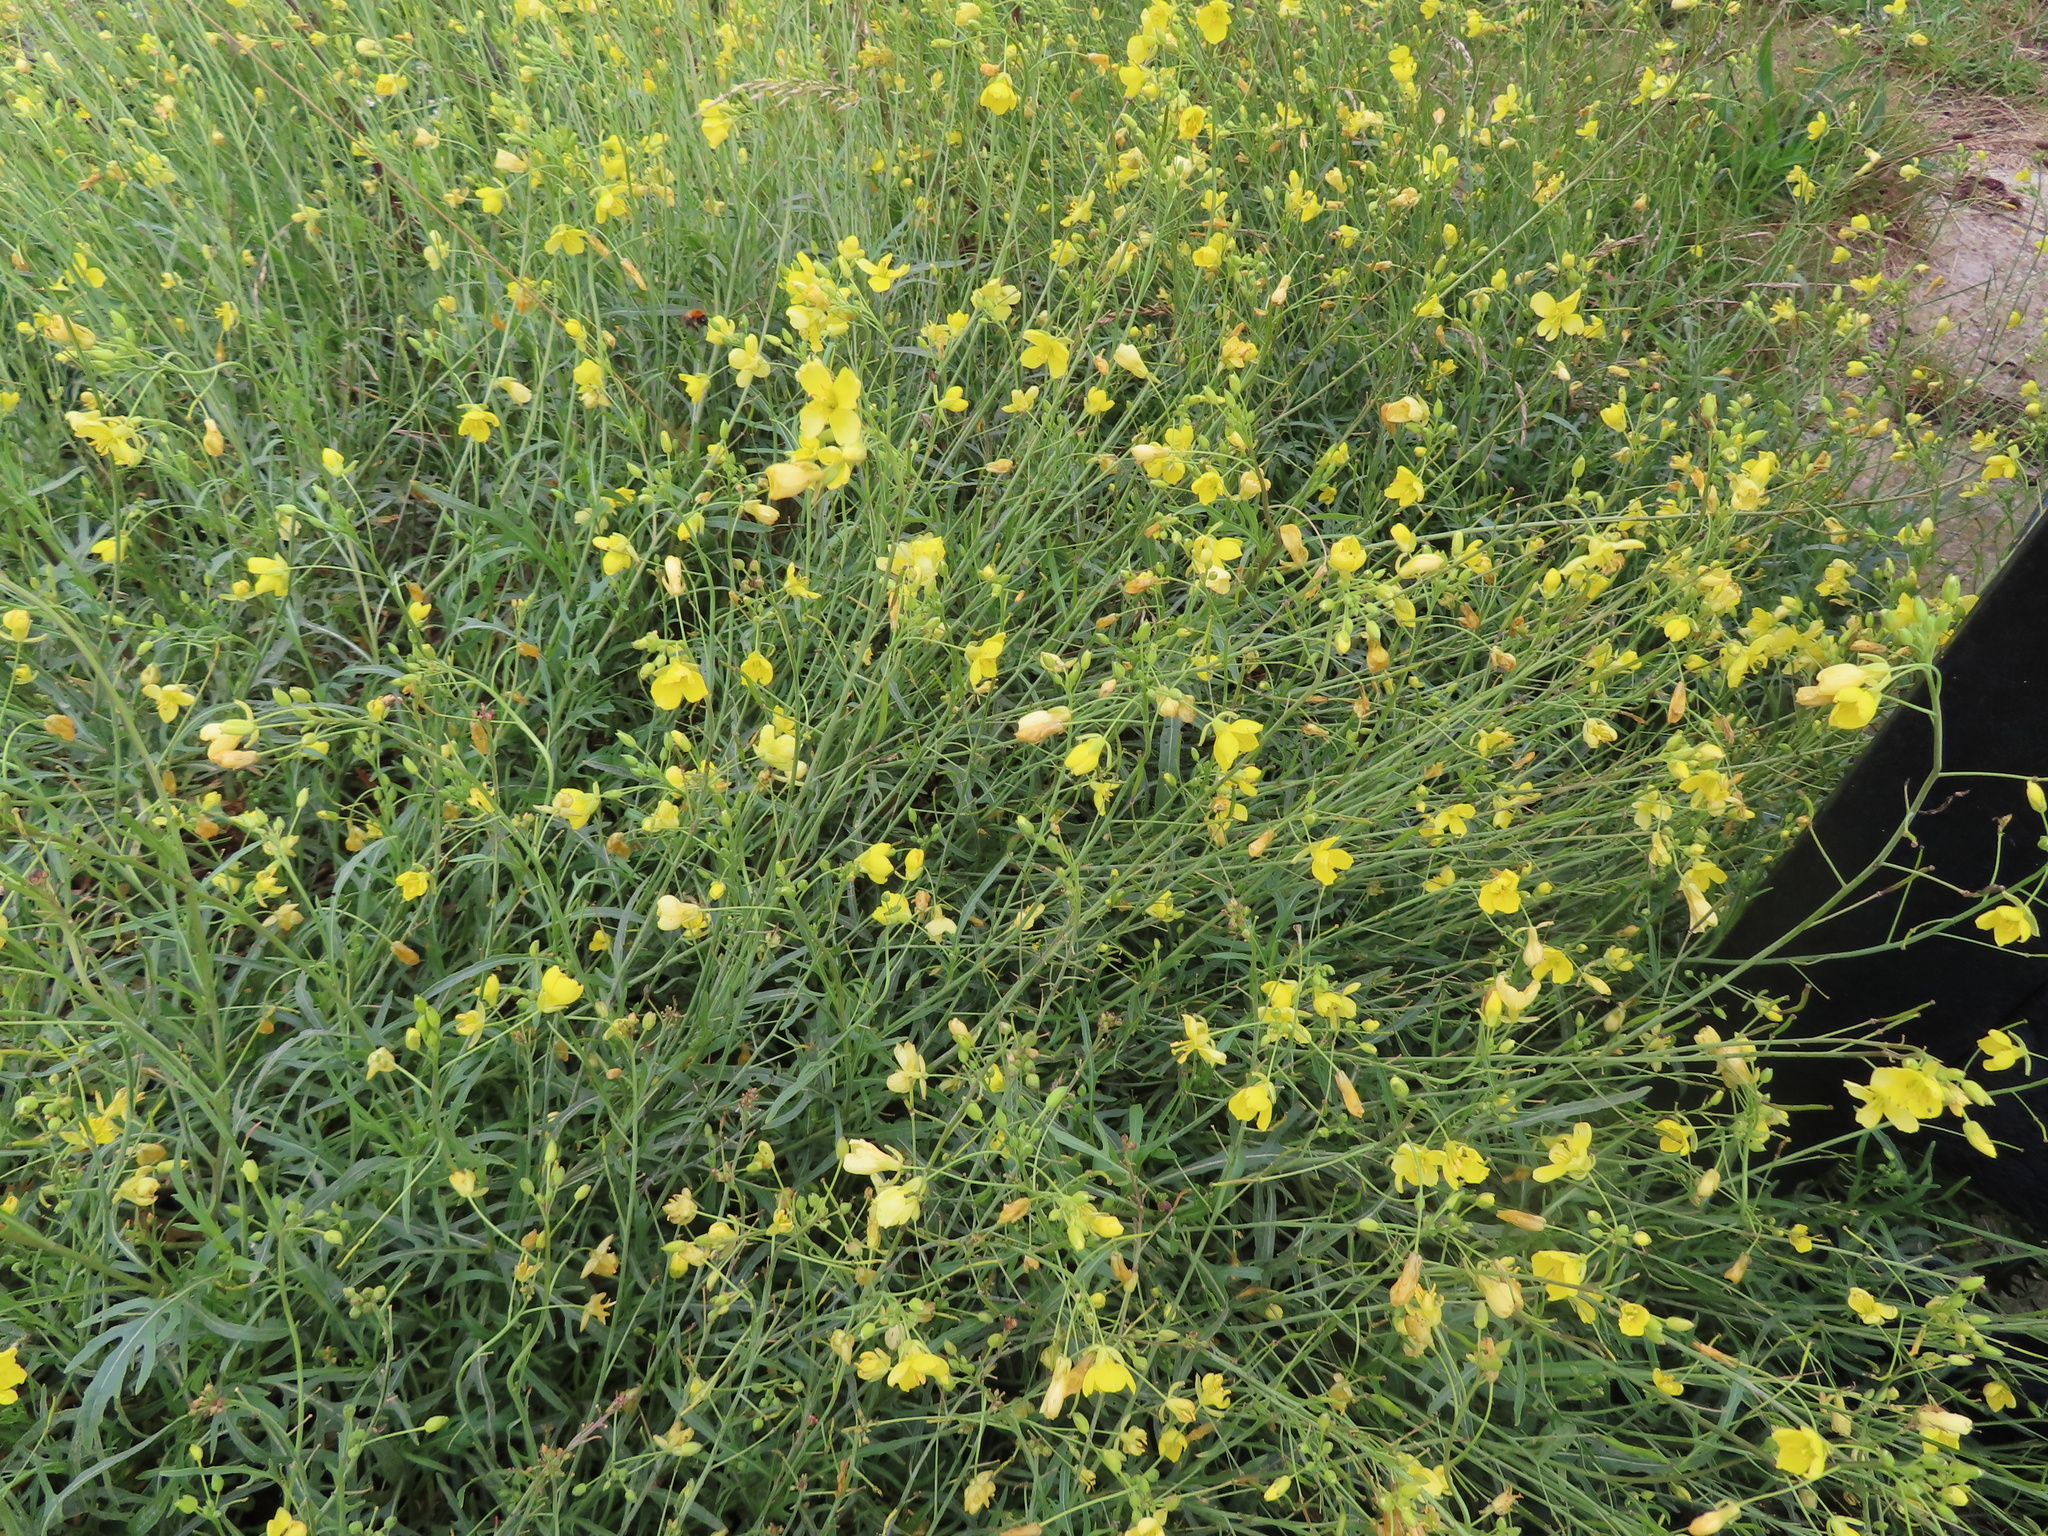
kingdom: Plantae
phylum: Tracheophyta
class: Magnoliopsida
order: Brassicales
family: Brassicaceae
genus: Diplotaxis
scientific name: Diplotaxis tenuifolia
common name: Perennial wall-rocket
